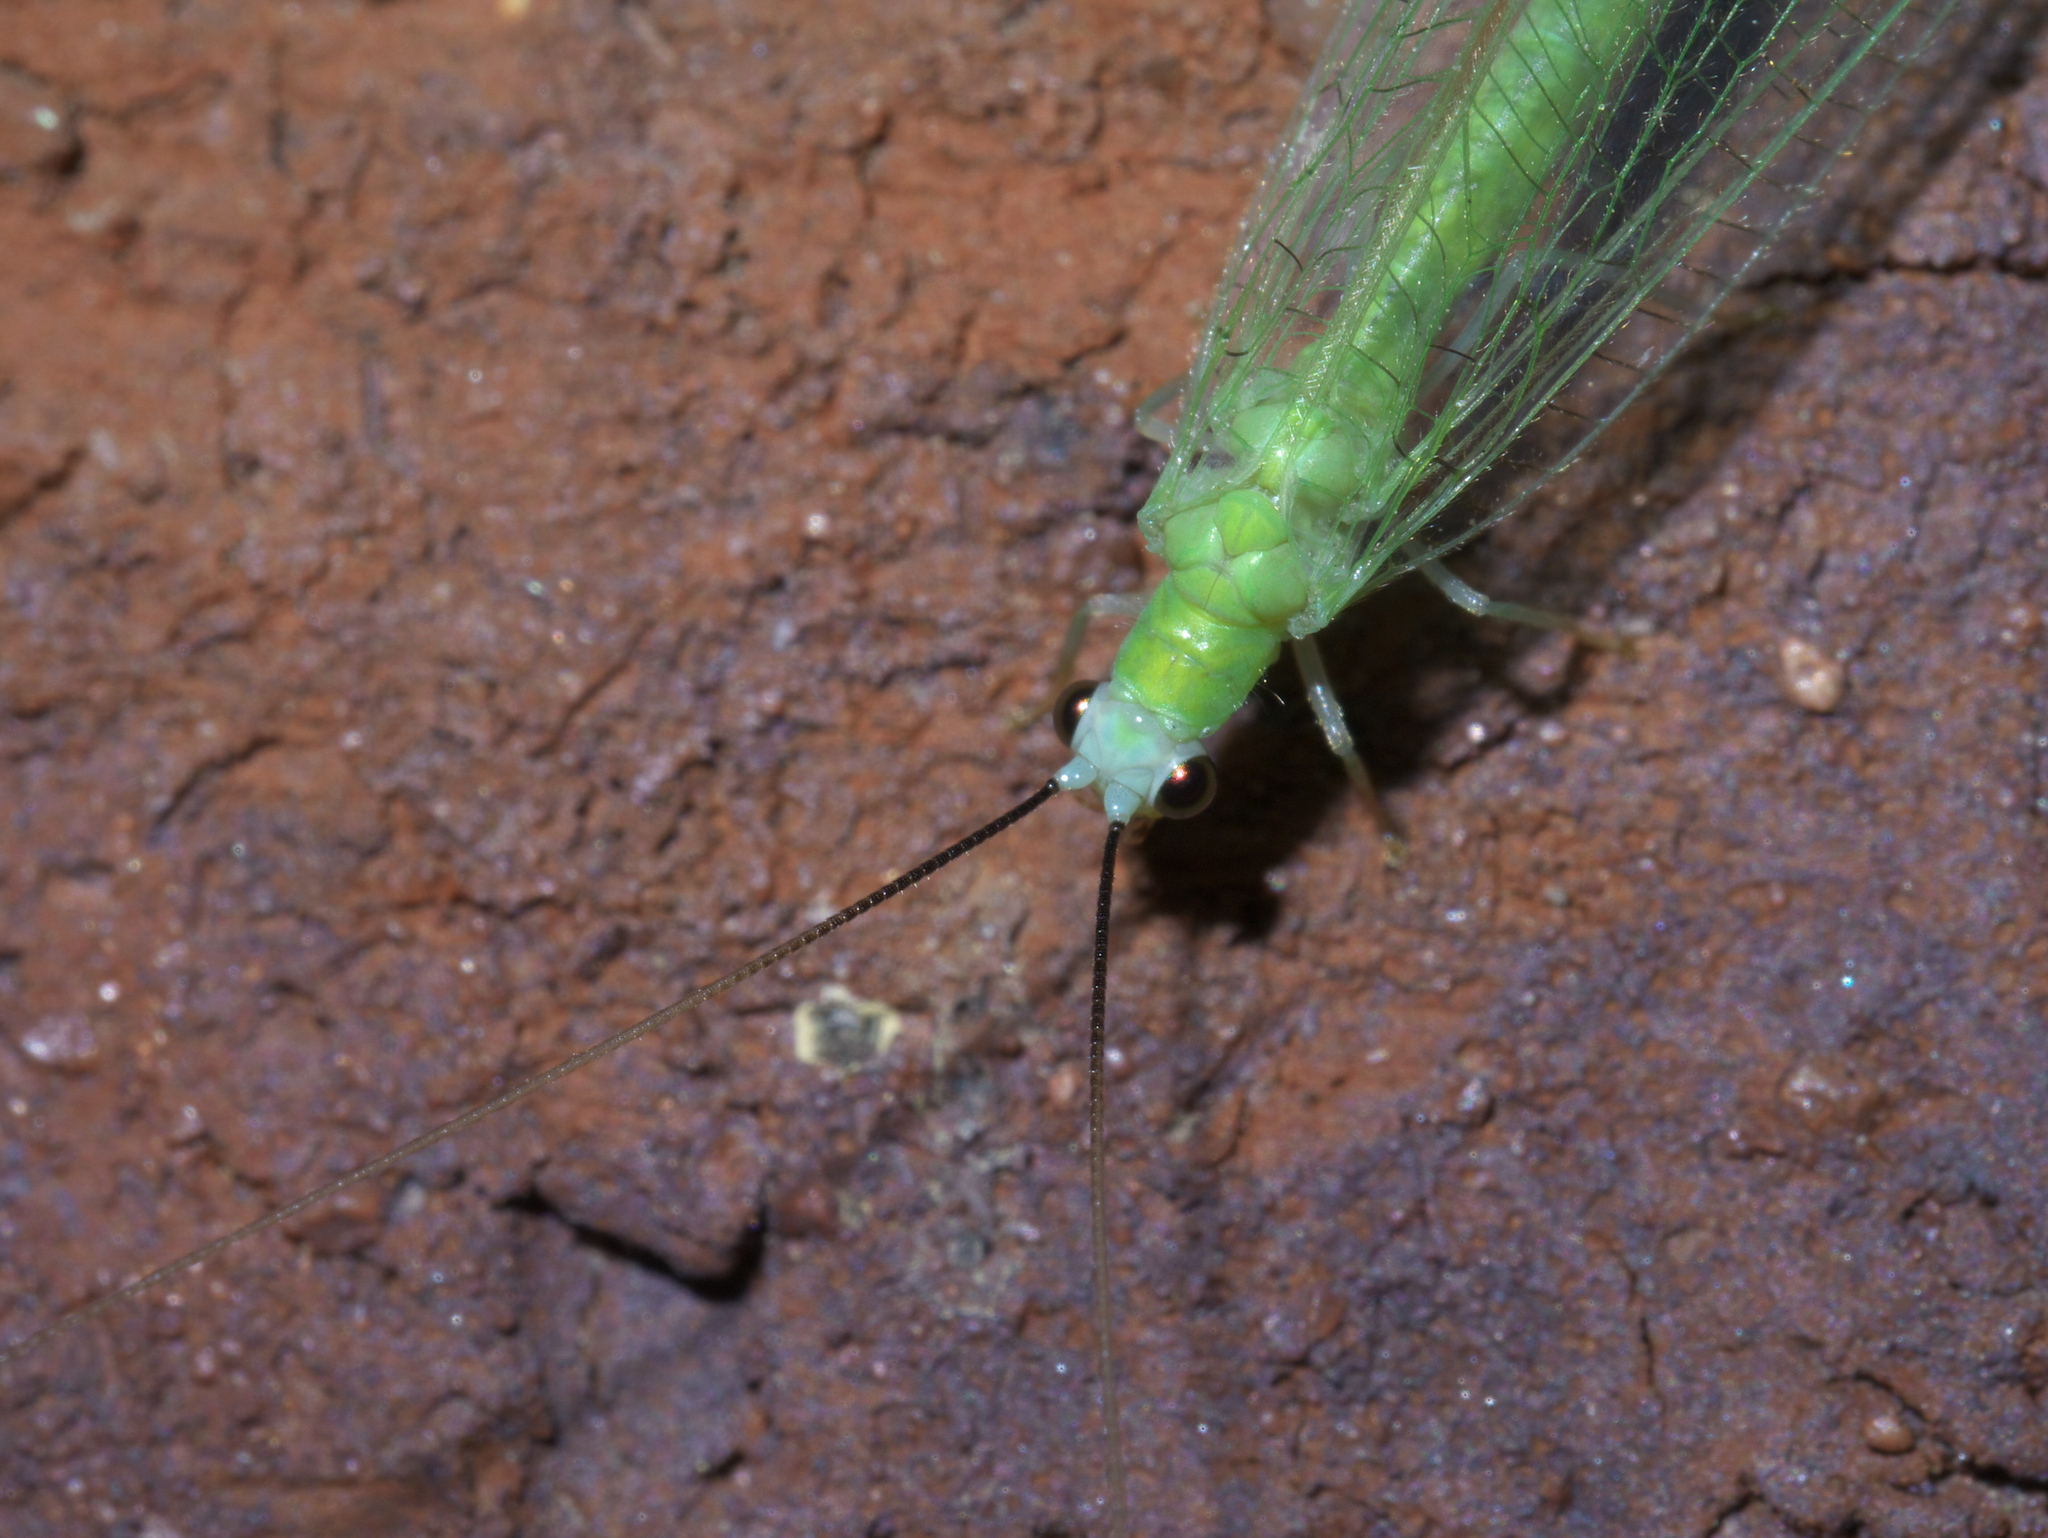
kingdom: Animalia
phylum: Arthropoda
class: Insecta
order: Neuroptera
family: Chrysopidae
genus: Chrysopa
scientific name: Chrysopa nigricornis
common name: Black-horned green lacewing
